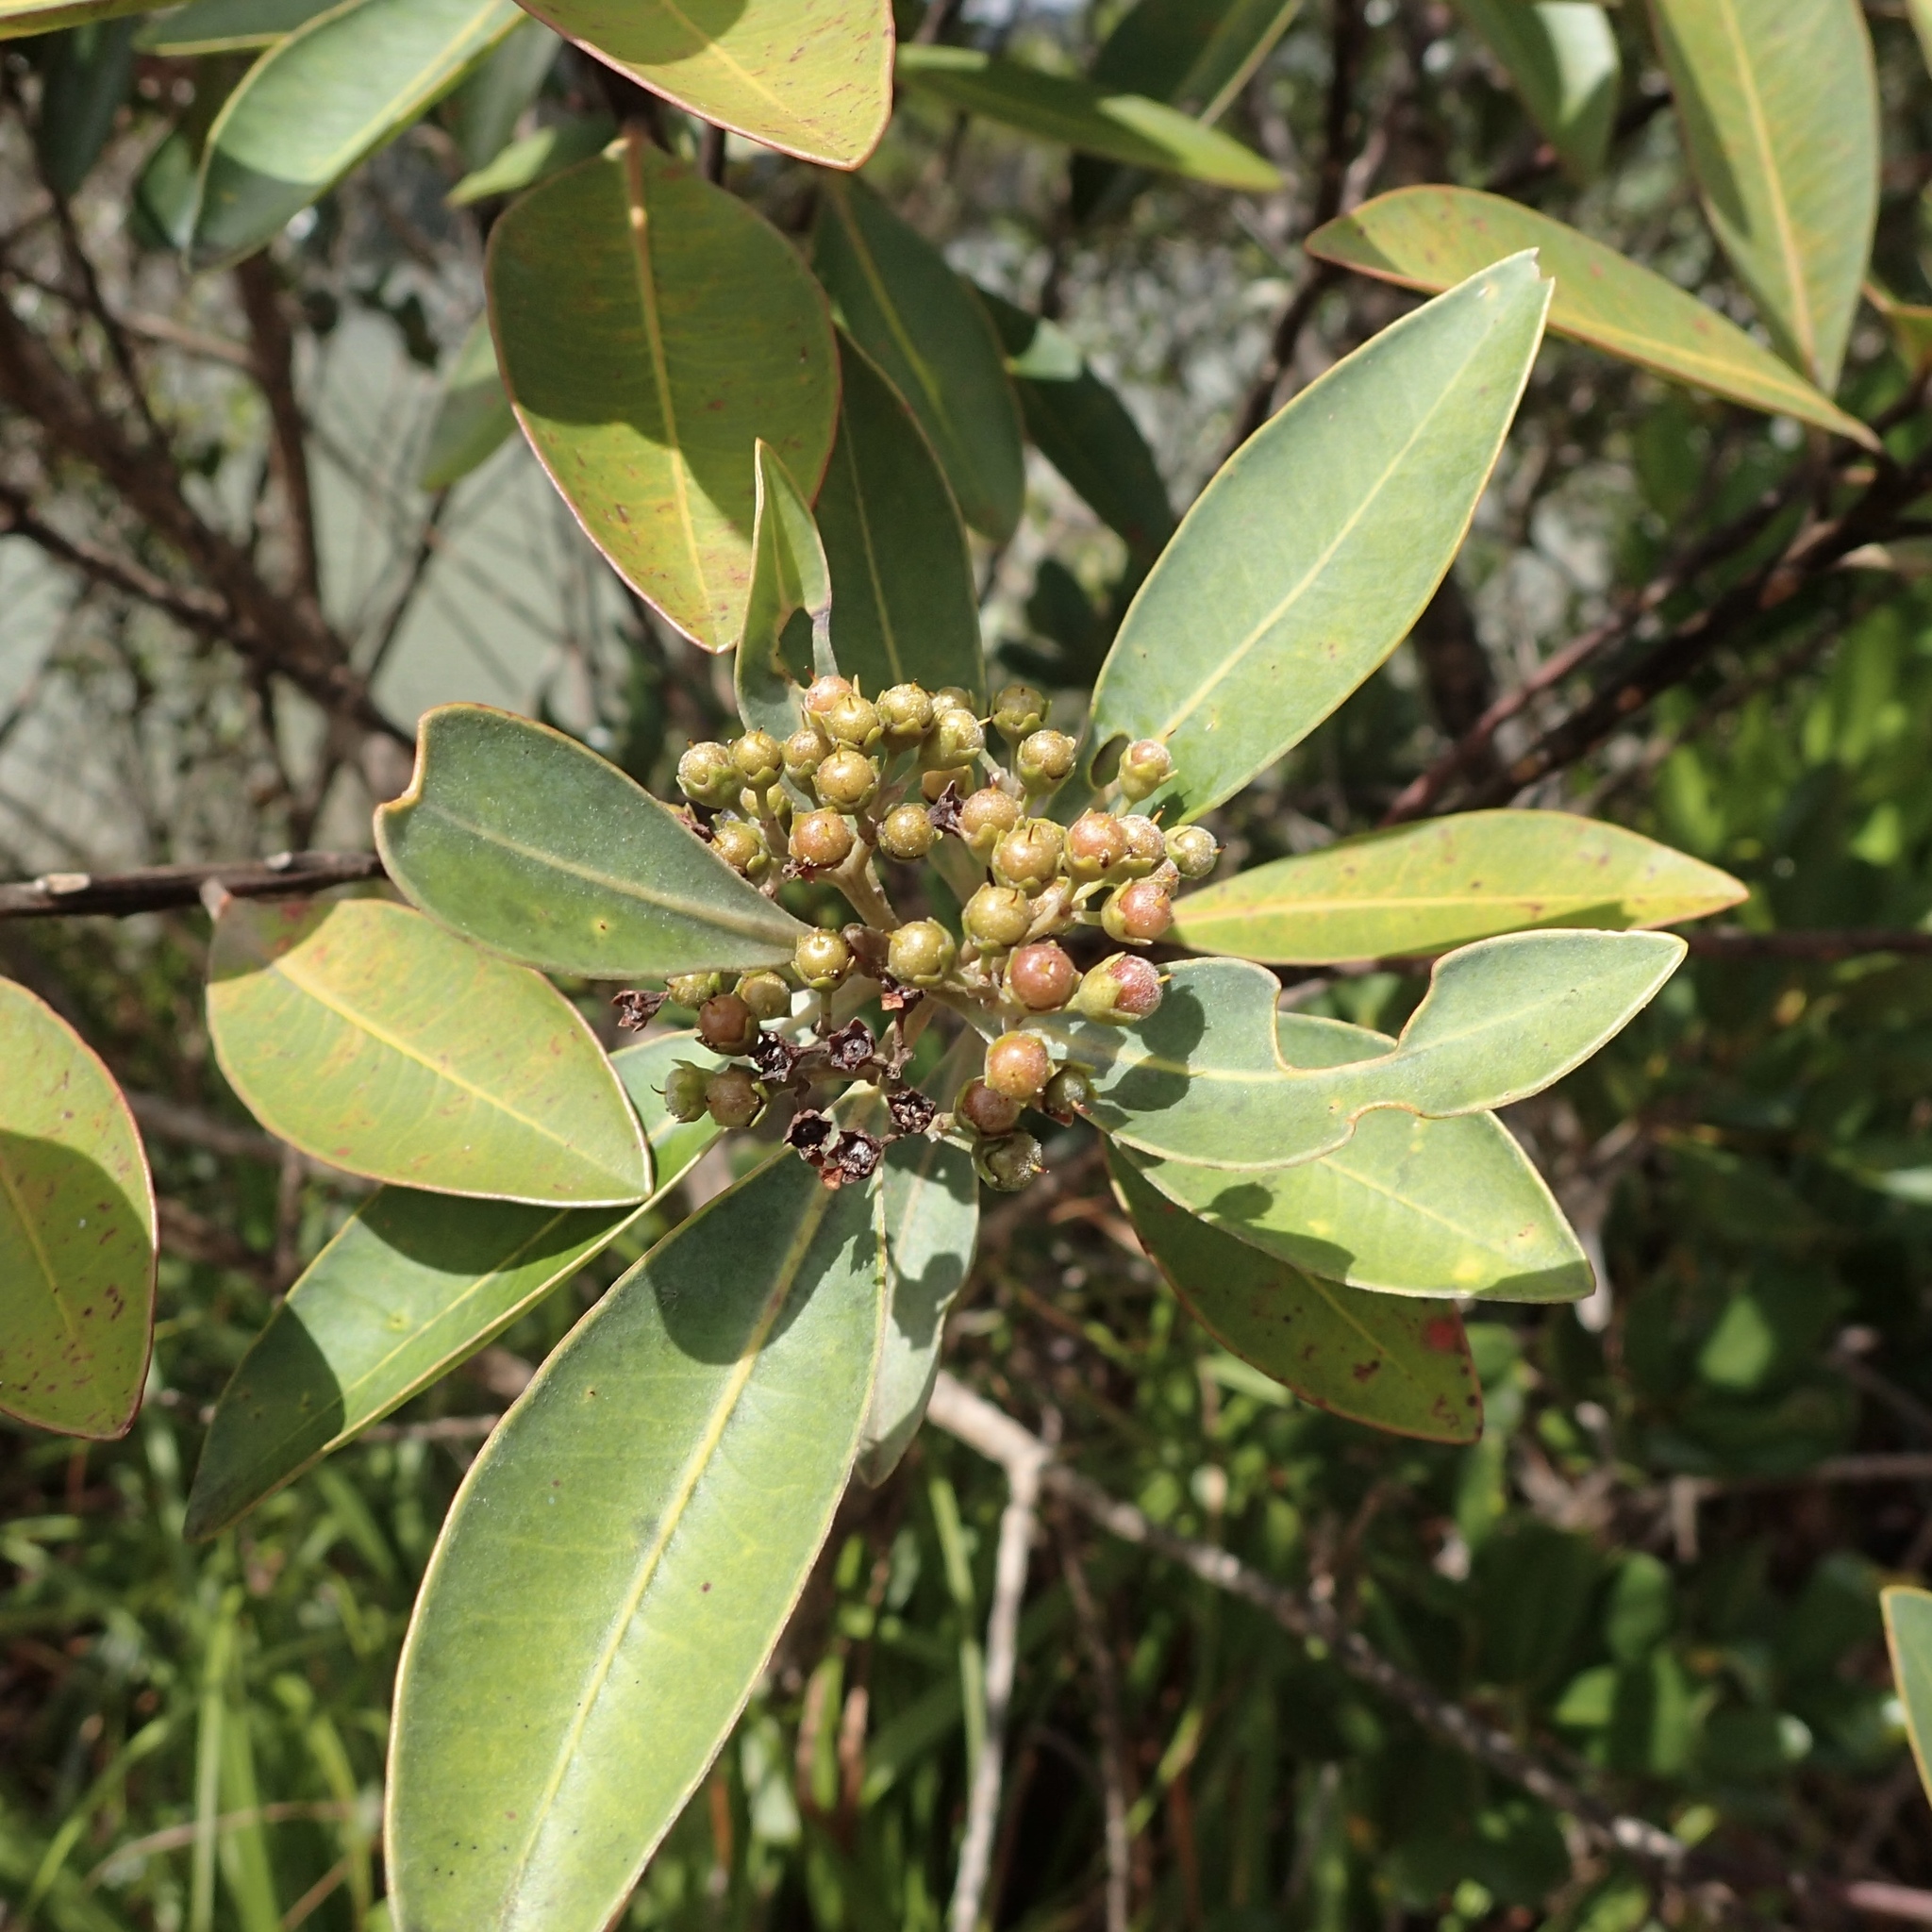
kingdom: Plantae
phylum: Tracheophyta
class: Magnoliopsida
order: Myrtales
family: Myrtaceae
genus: Tristaniopsis
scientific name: Tristaniopsis glauca
